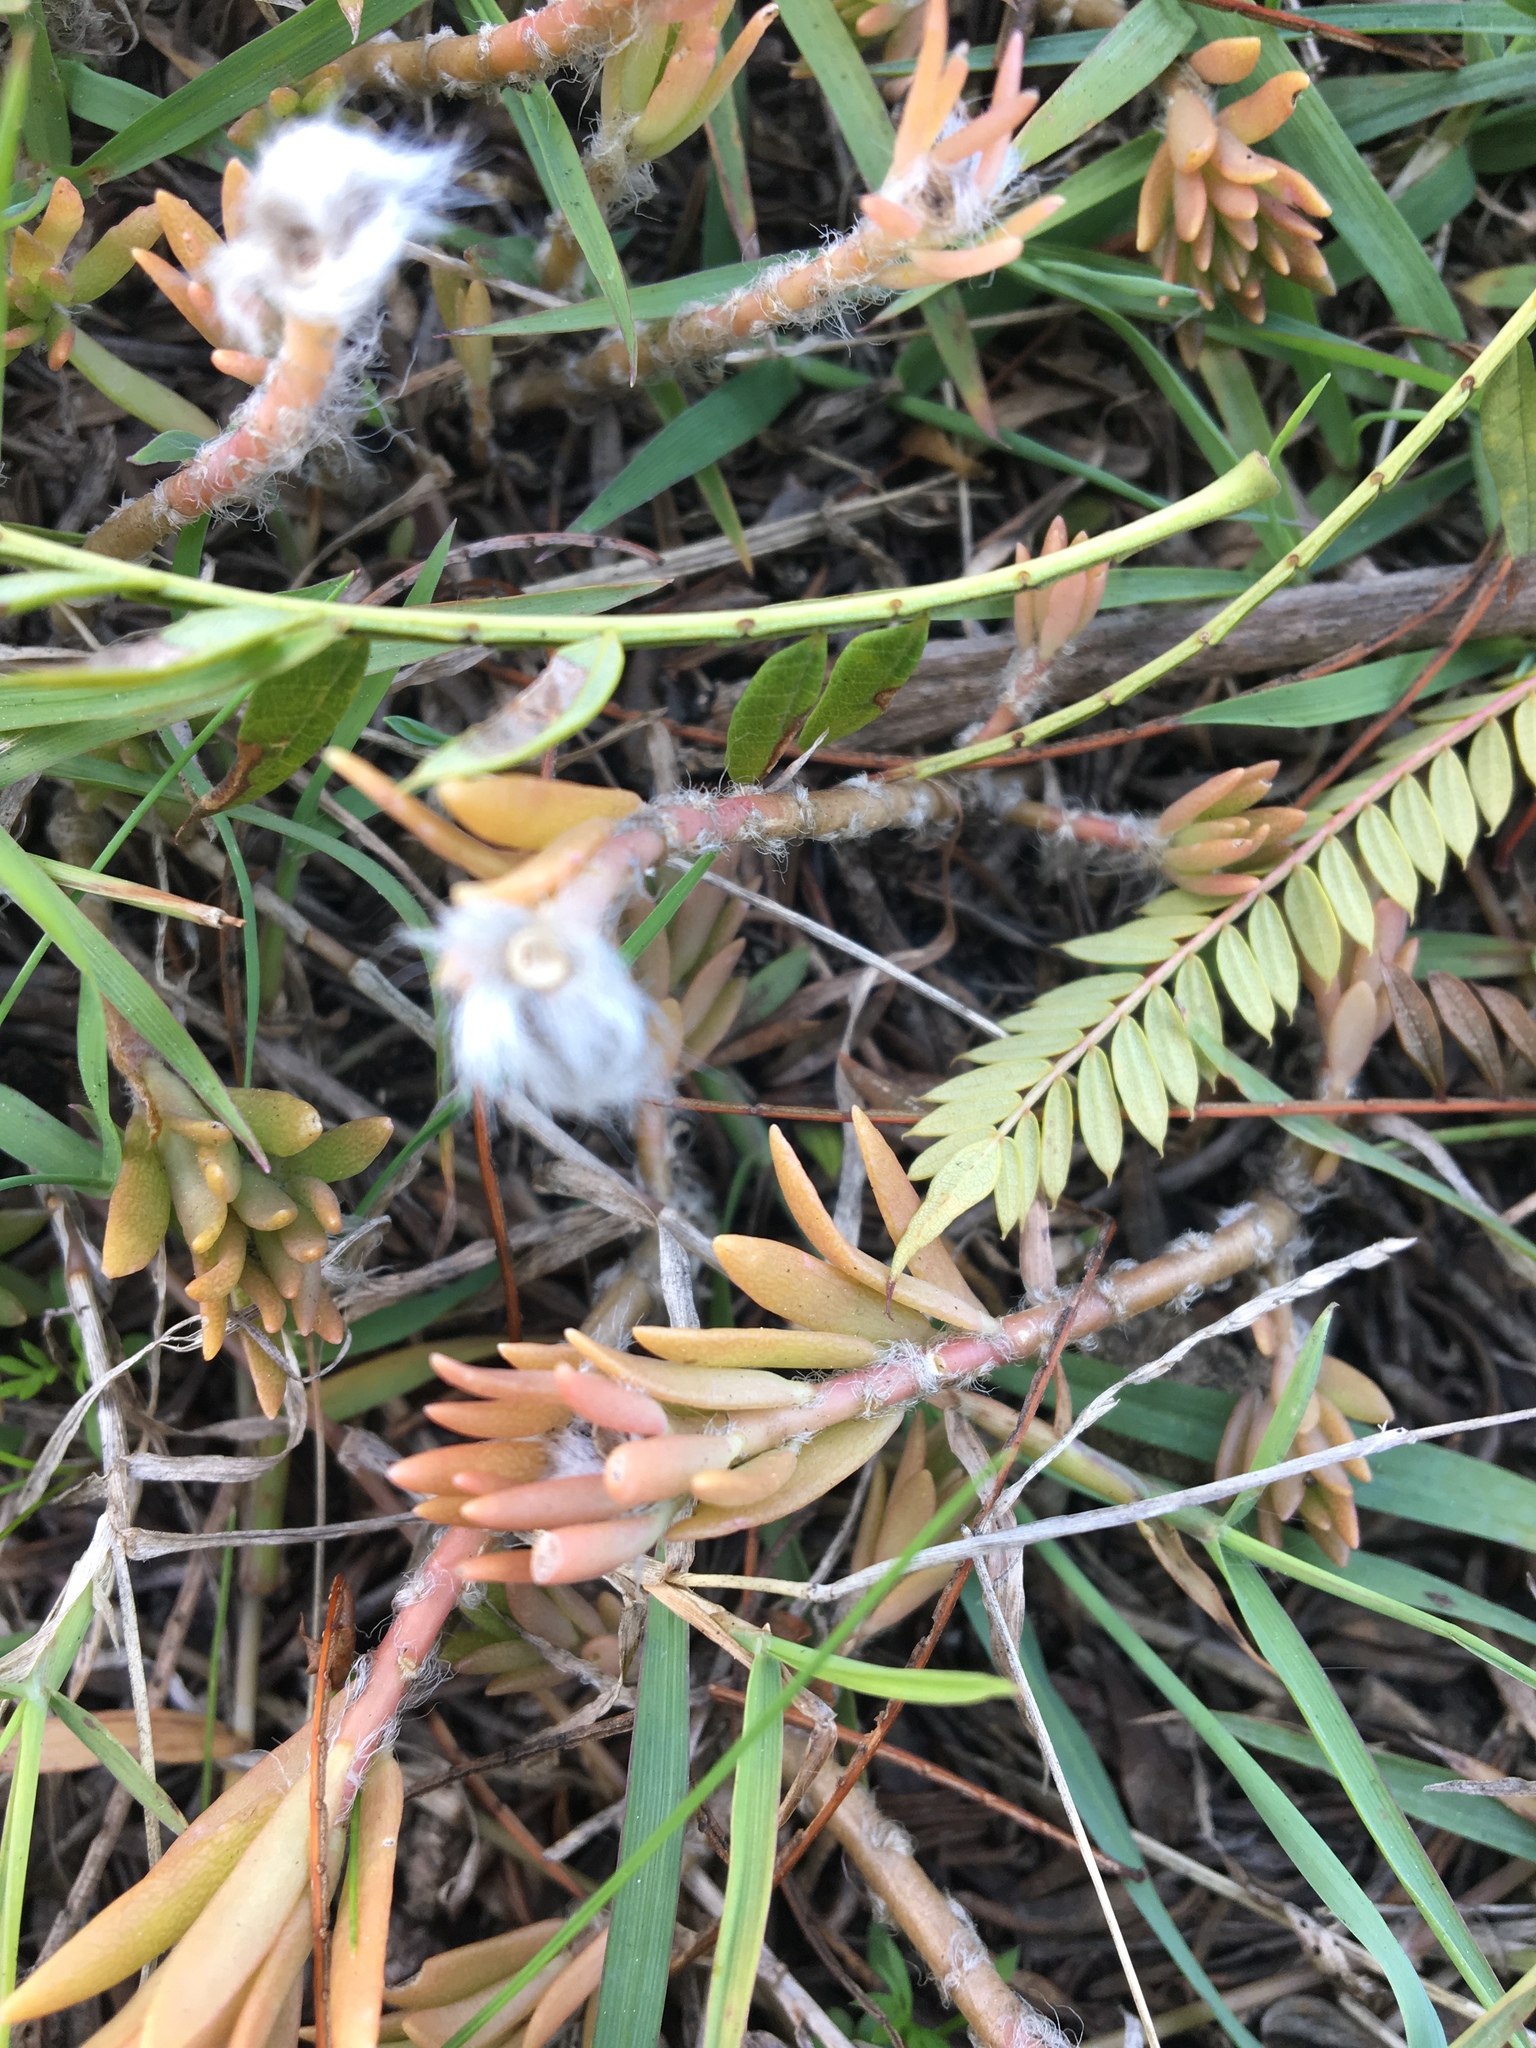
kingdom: Plantae
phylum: Tracheophyta
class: Magnoliopsida
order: Caryophyllales
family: Portulacaceae
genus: Portulaca
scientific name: Portulaca pilosa
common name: Kiss me quick
